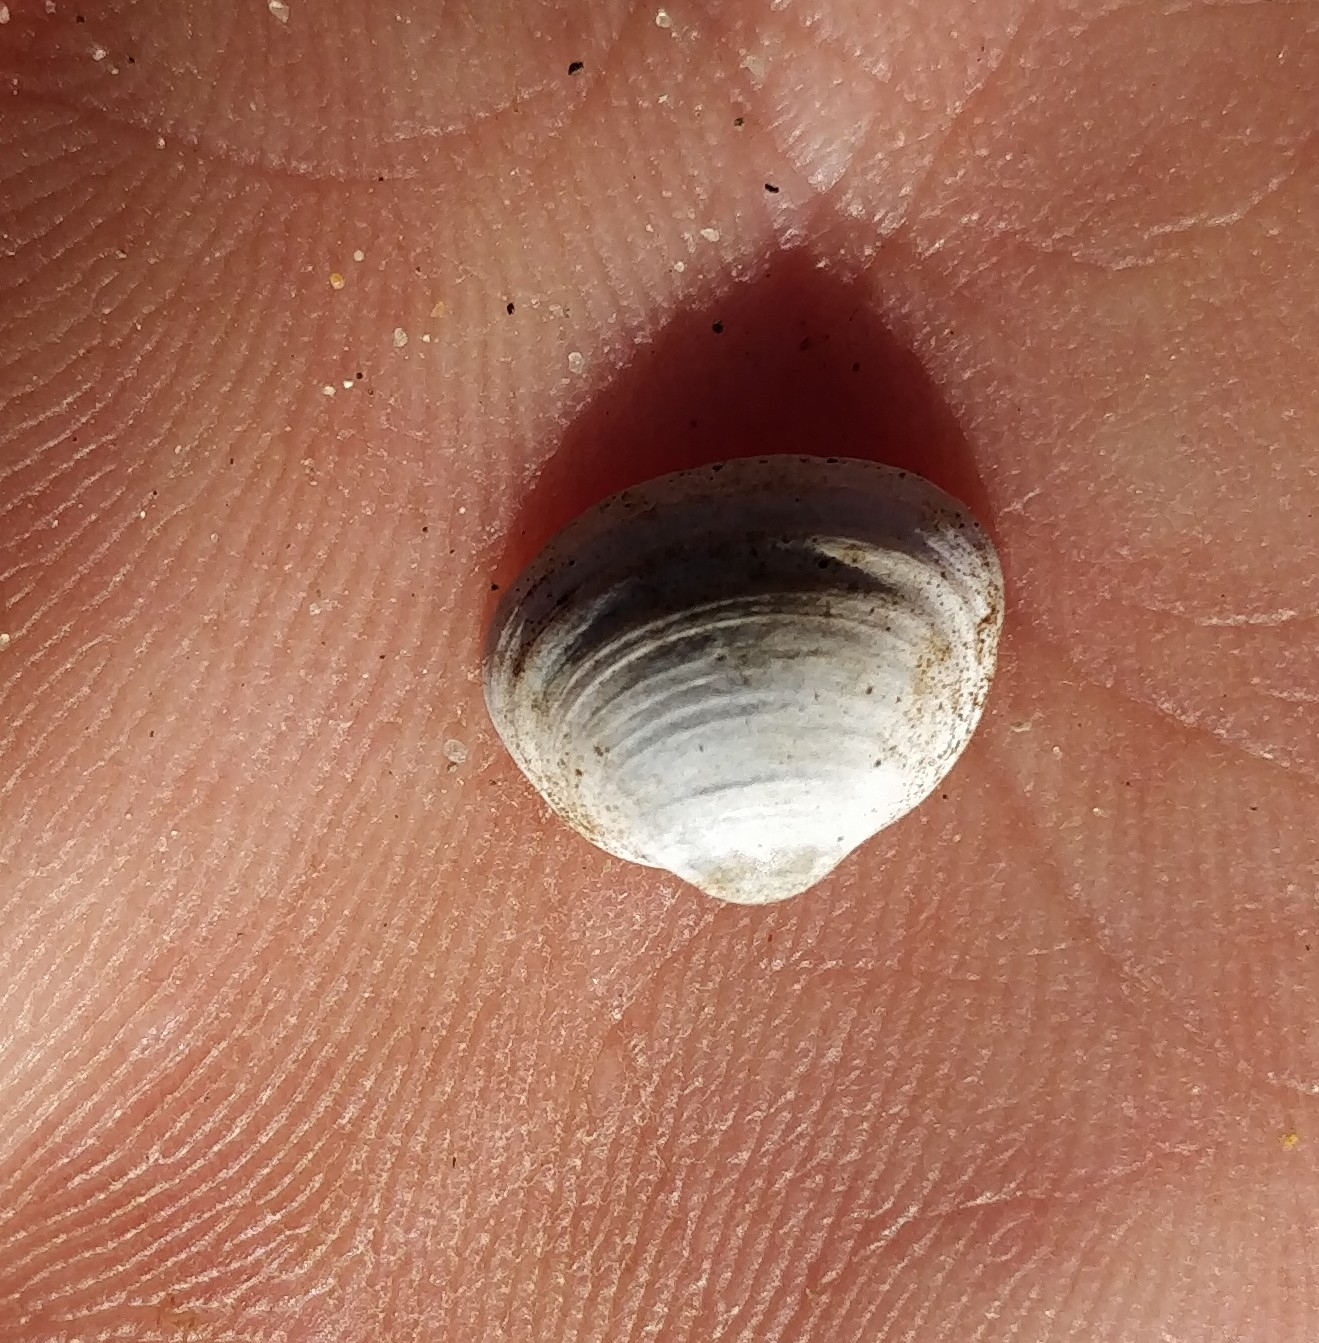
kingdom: Animalia
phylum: Mollusca
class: Bivalvia
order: Sphaeriida
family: Sphaeriidae
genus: Sphaerium
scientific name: Sphaerium striatinum
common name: Striated fingernailclam
